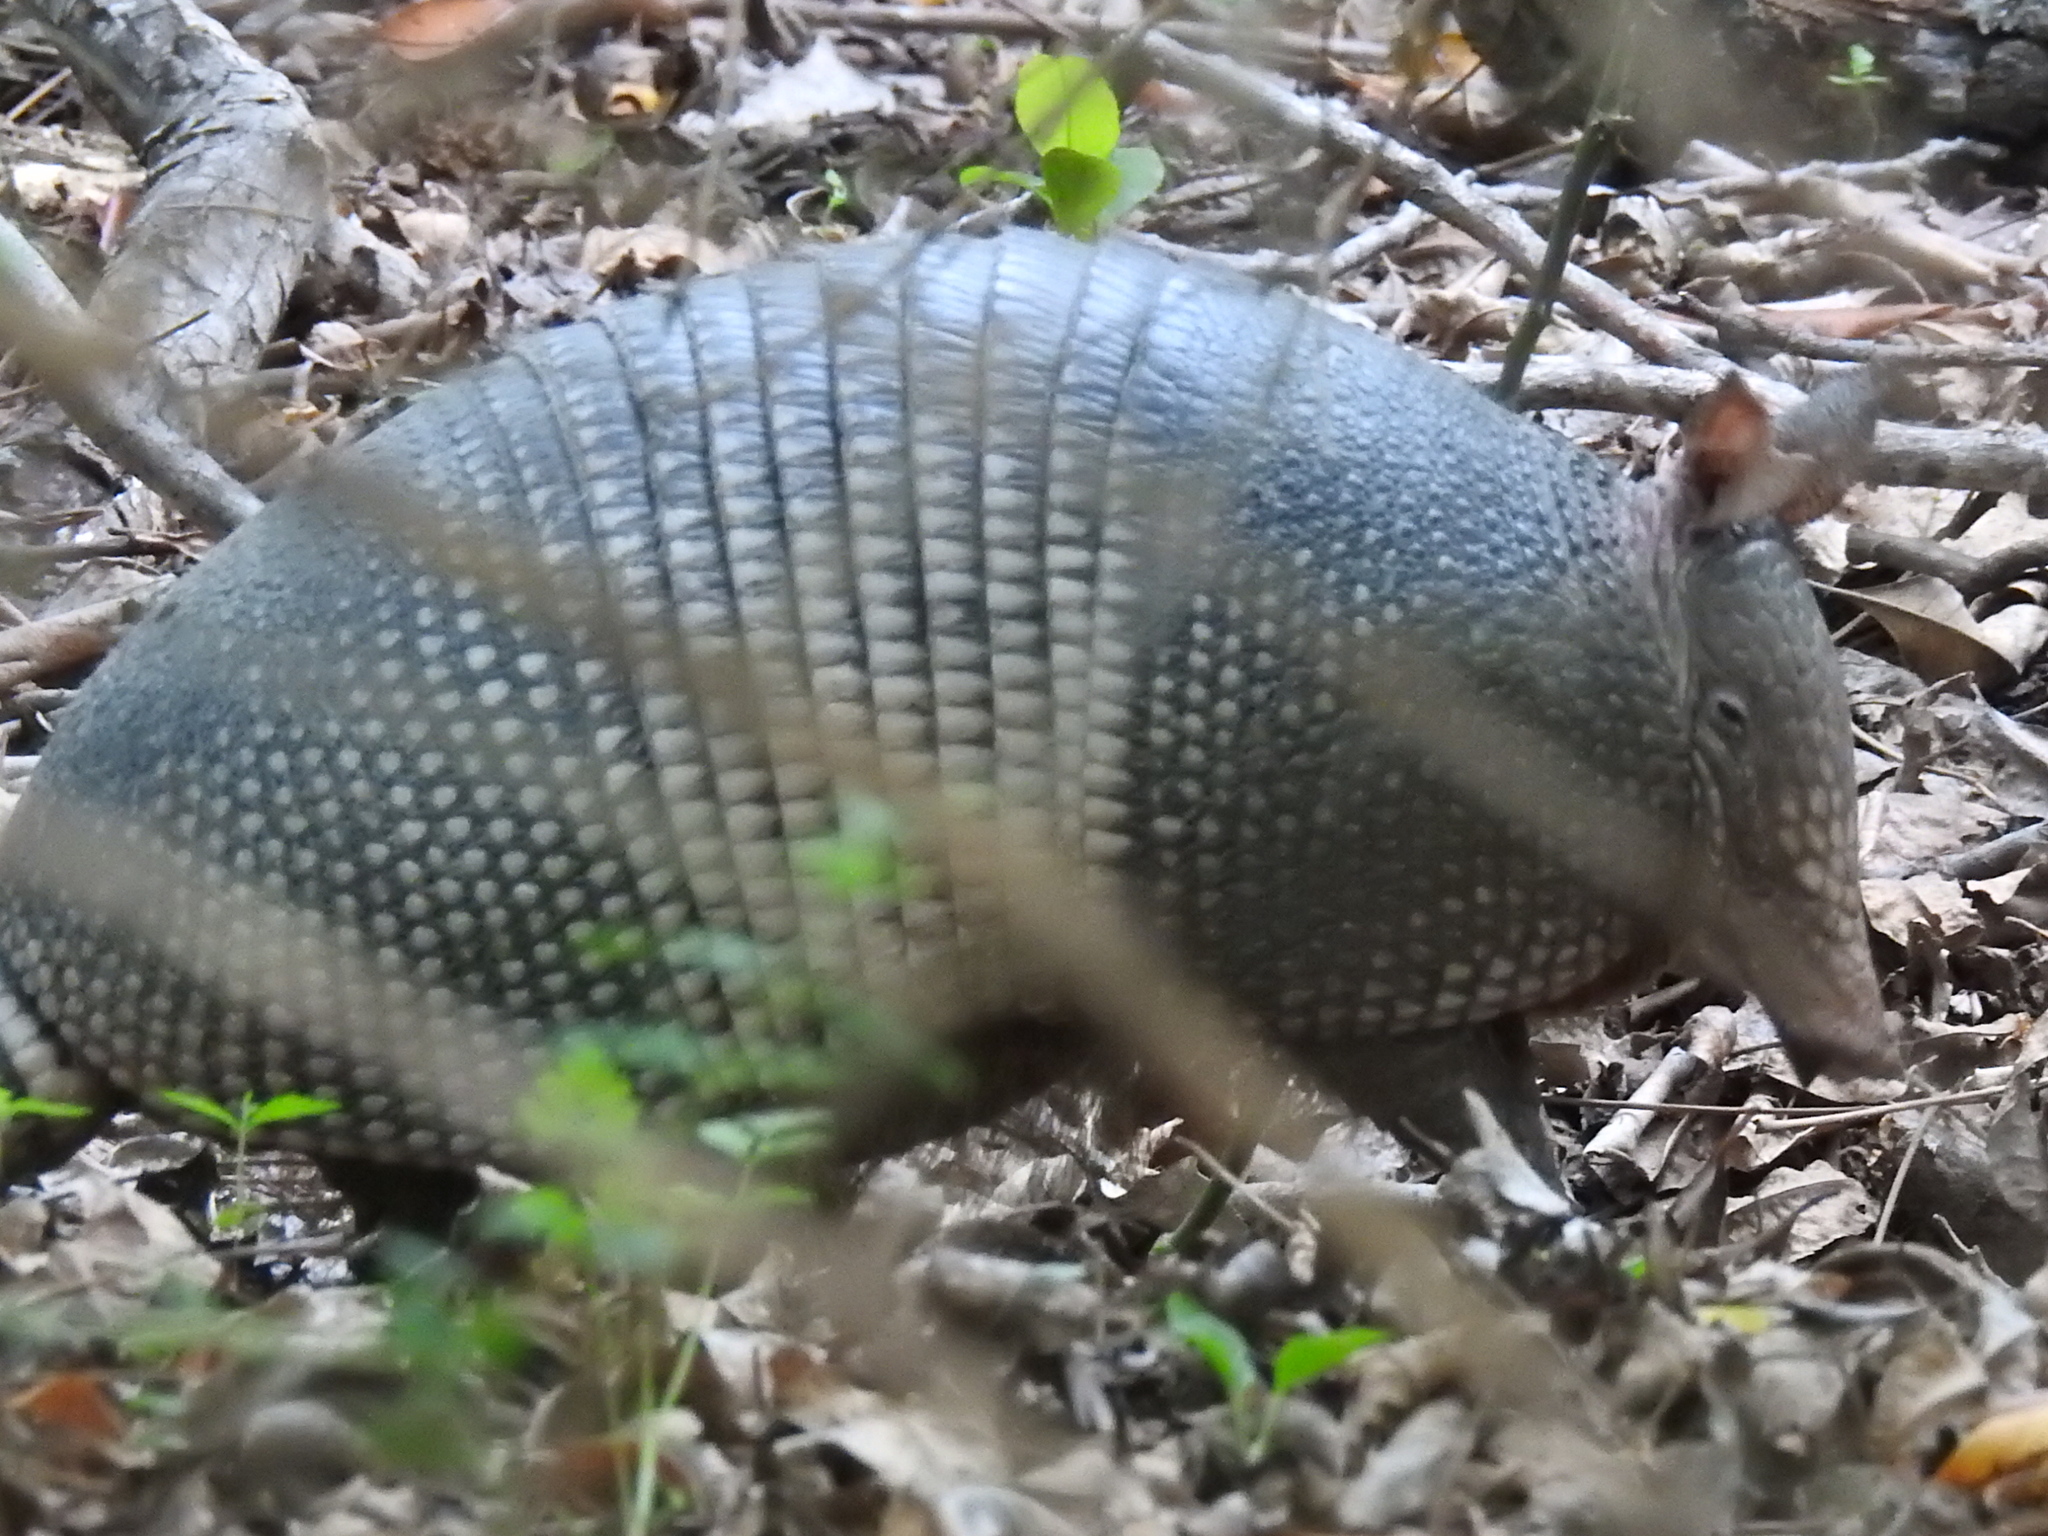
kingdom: Animalia
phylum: Chordata
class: Mammalia
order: Cingulata
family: Dasypodidae
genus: Dasypus
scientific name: Dasypus novemcinctus
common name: Nine-banded armadillo
